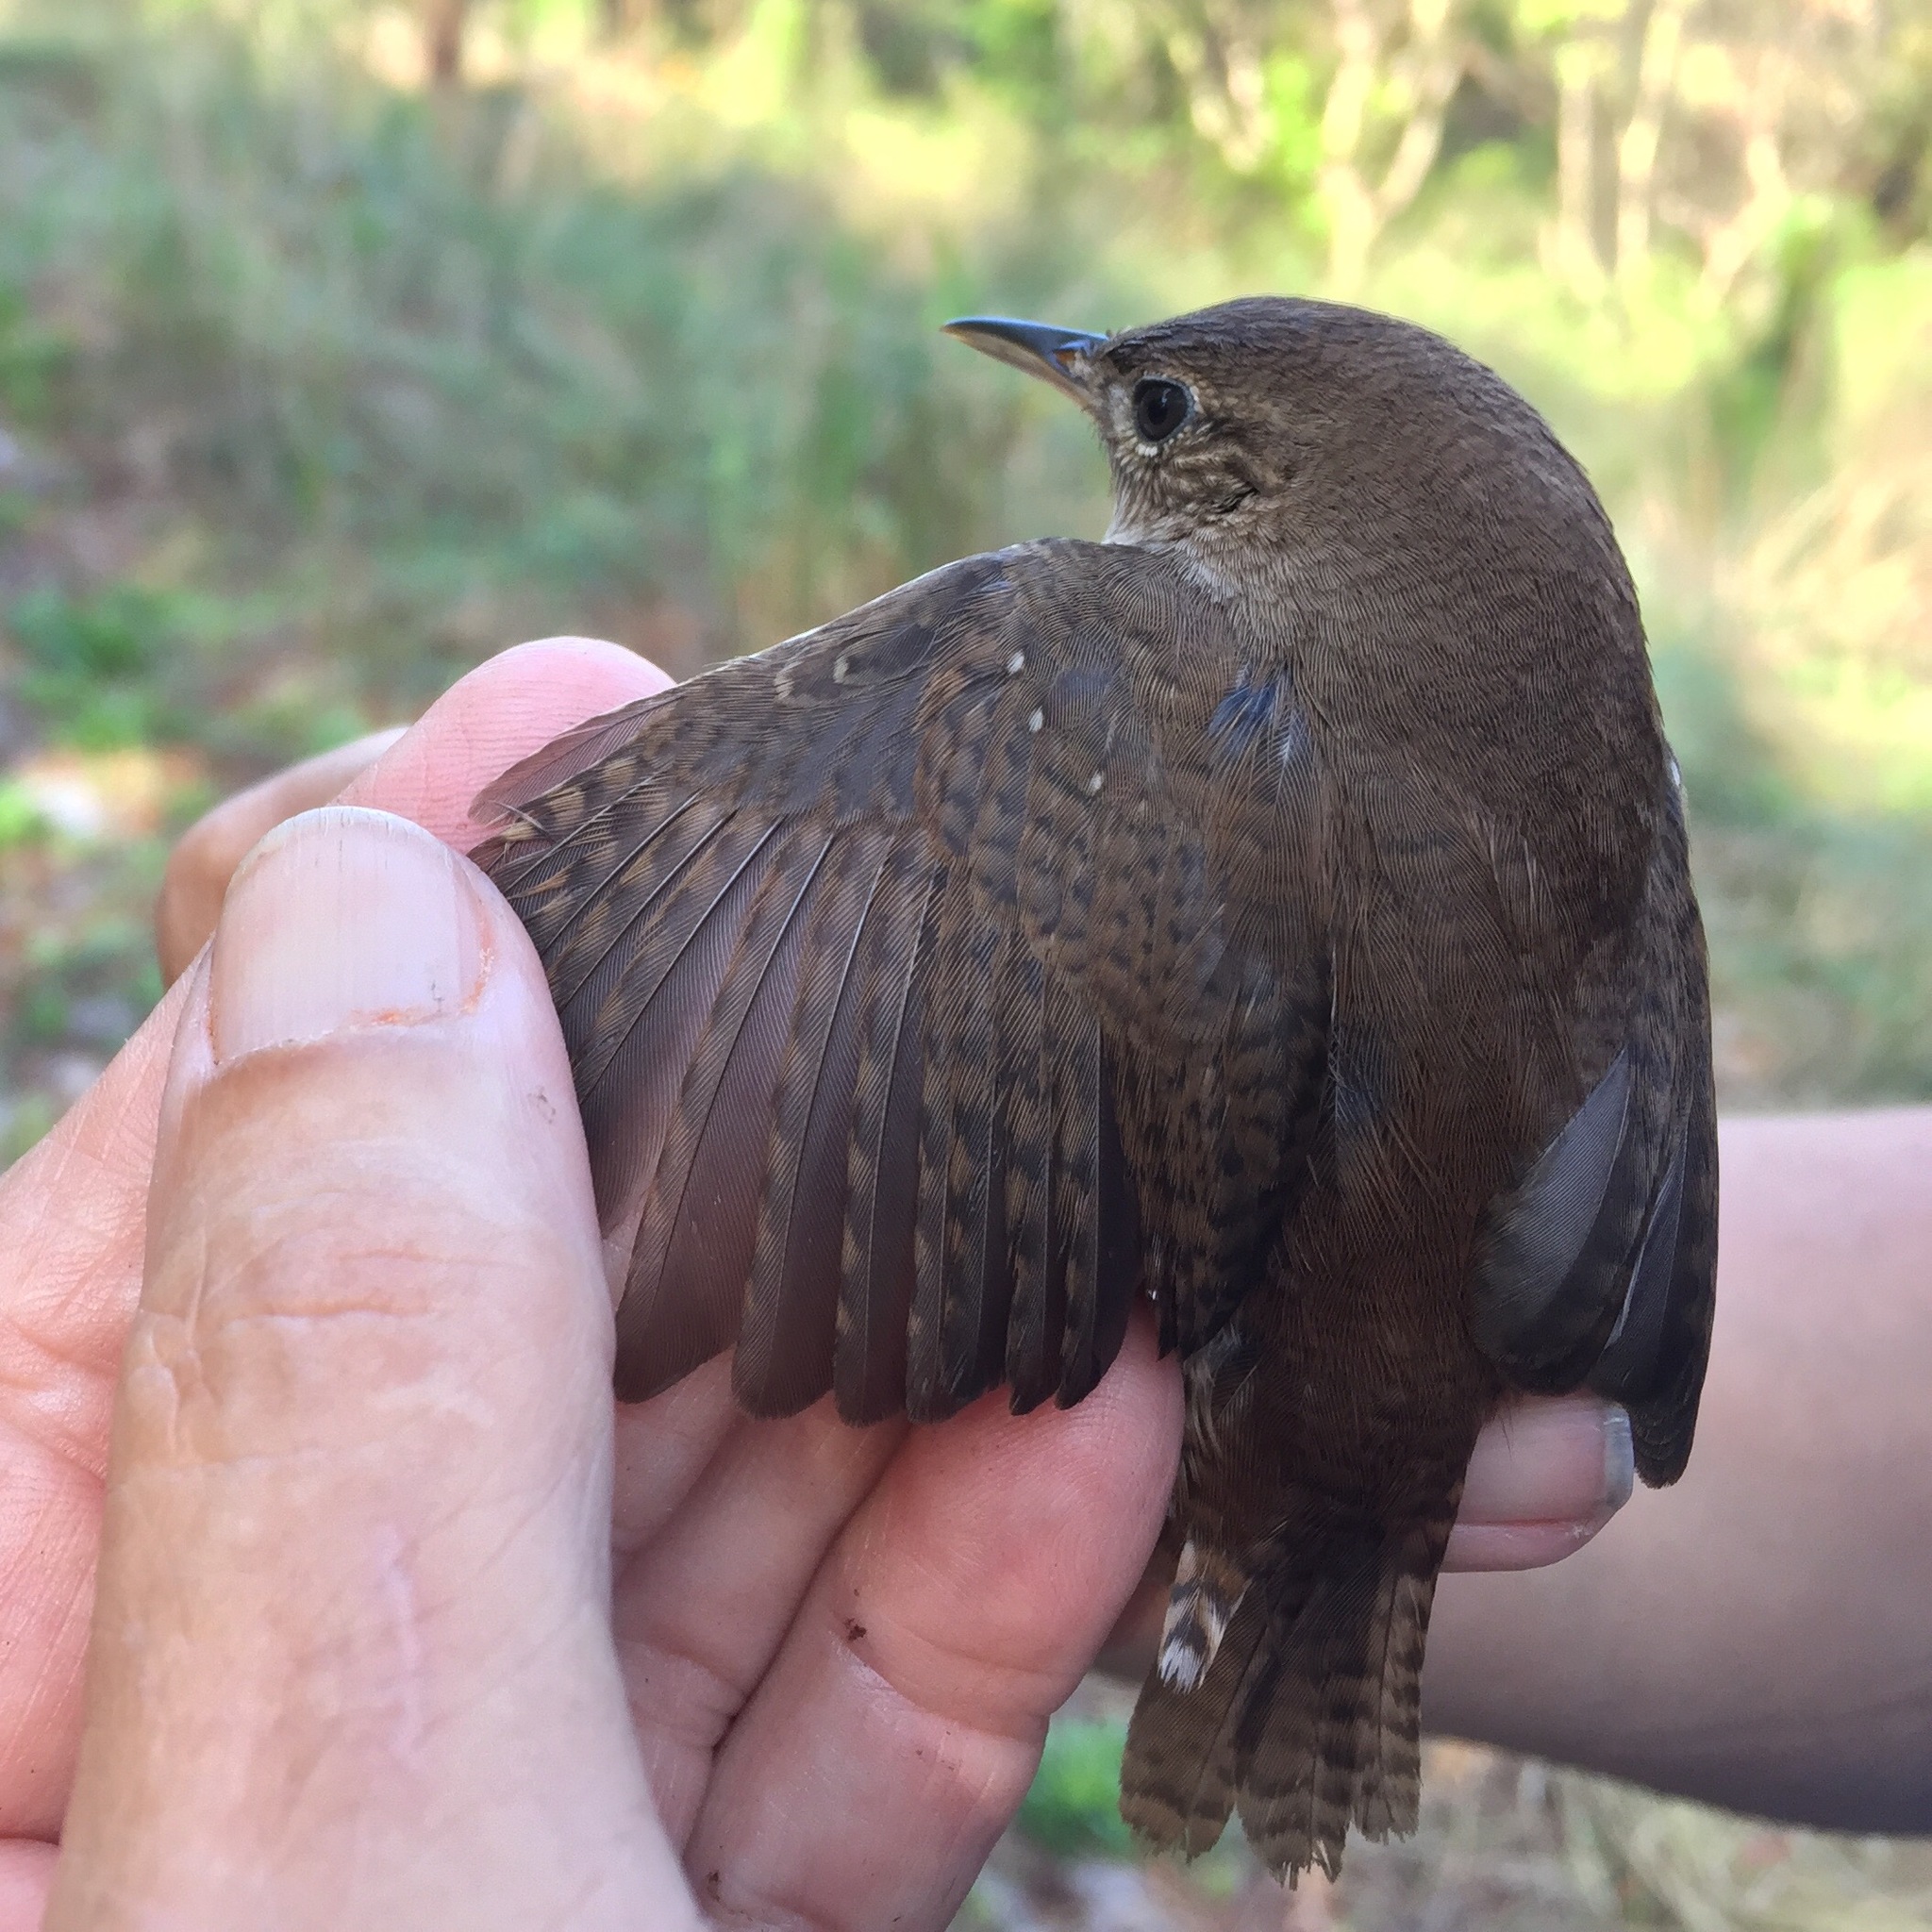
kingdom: Animalia
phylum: Chordata
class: Aves
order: Passeriformes
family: Troglodytidae
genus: Troglodytes
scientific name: Troglodytes aedon
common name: House wren
